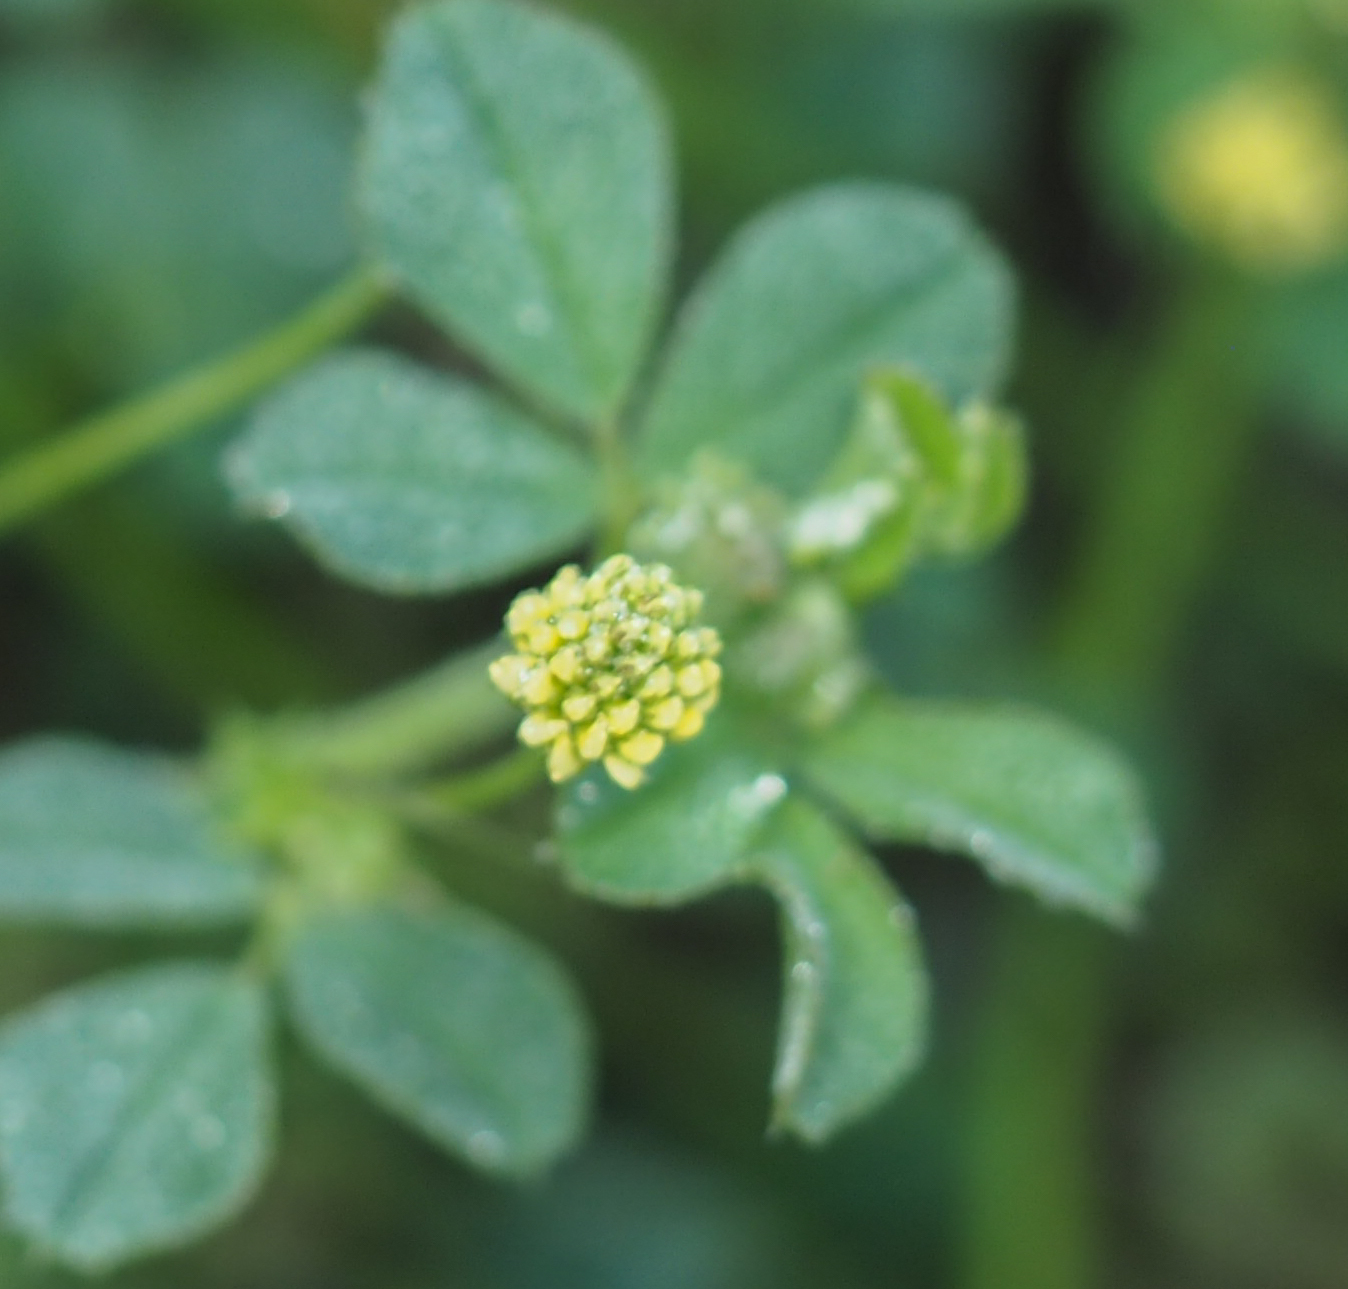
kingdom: Plantae
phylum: Tracheophyta
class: Magnoliopsida
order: Fabales
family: Fabaceae
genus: Medicago
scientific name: Medicago lupulina
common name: Black medick
